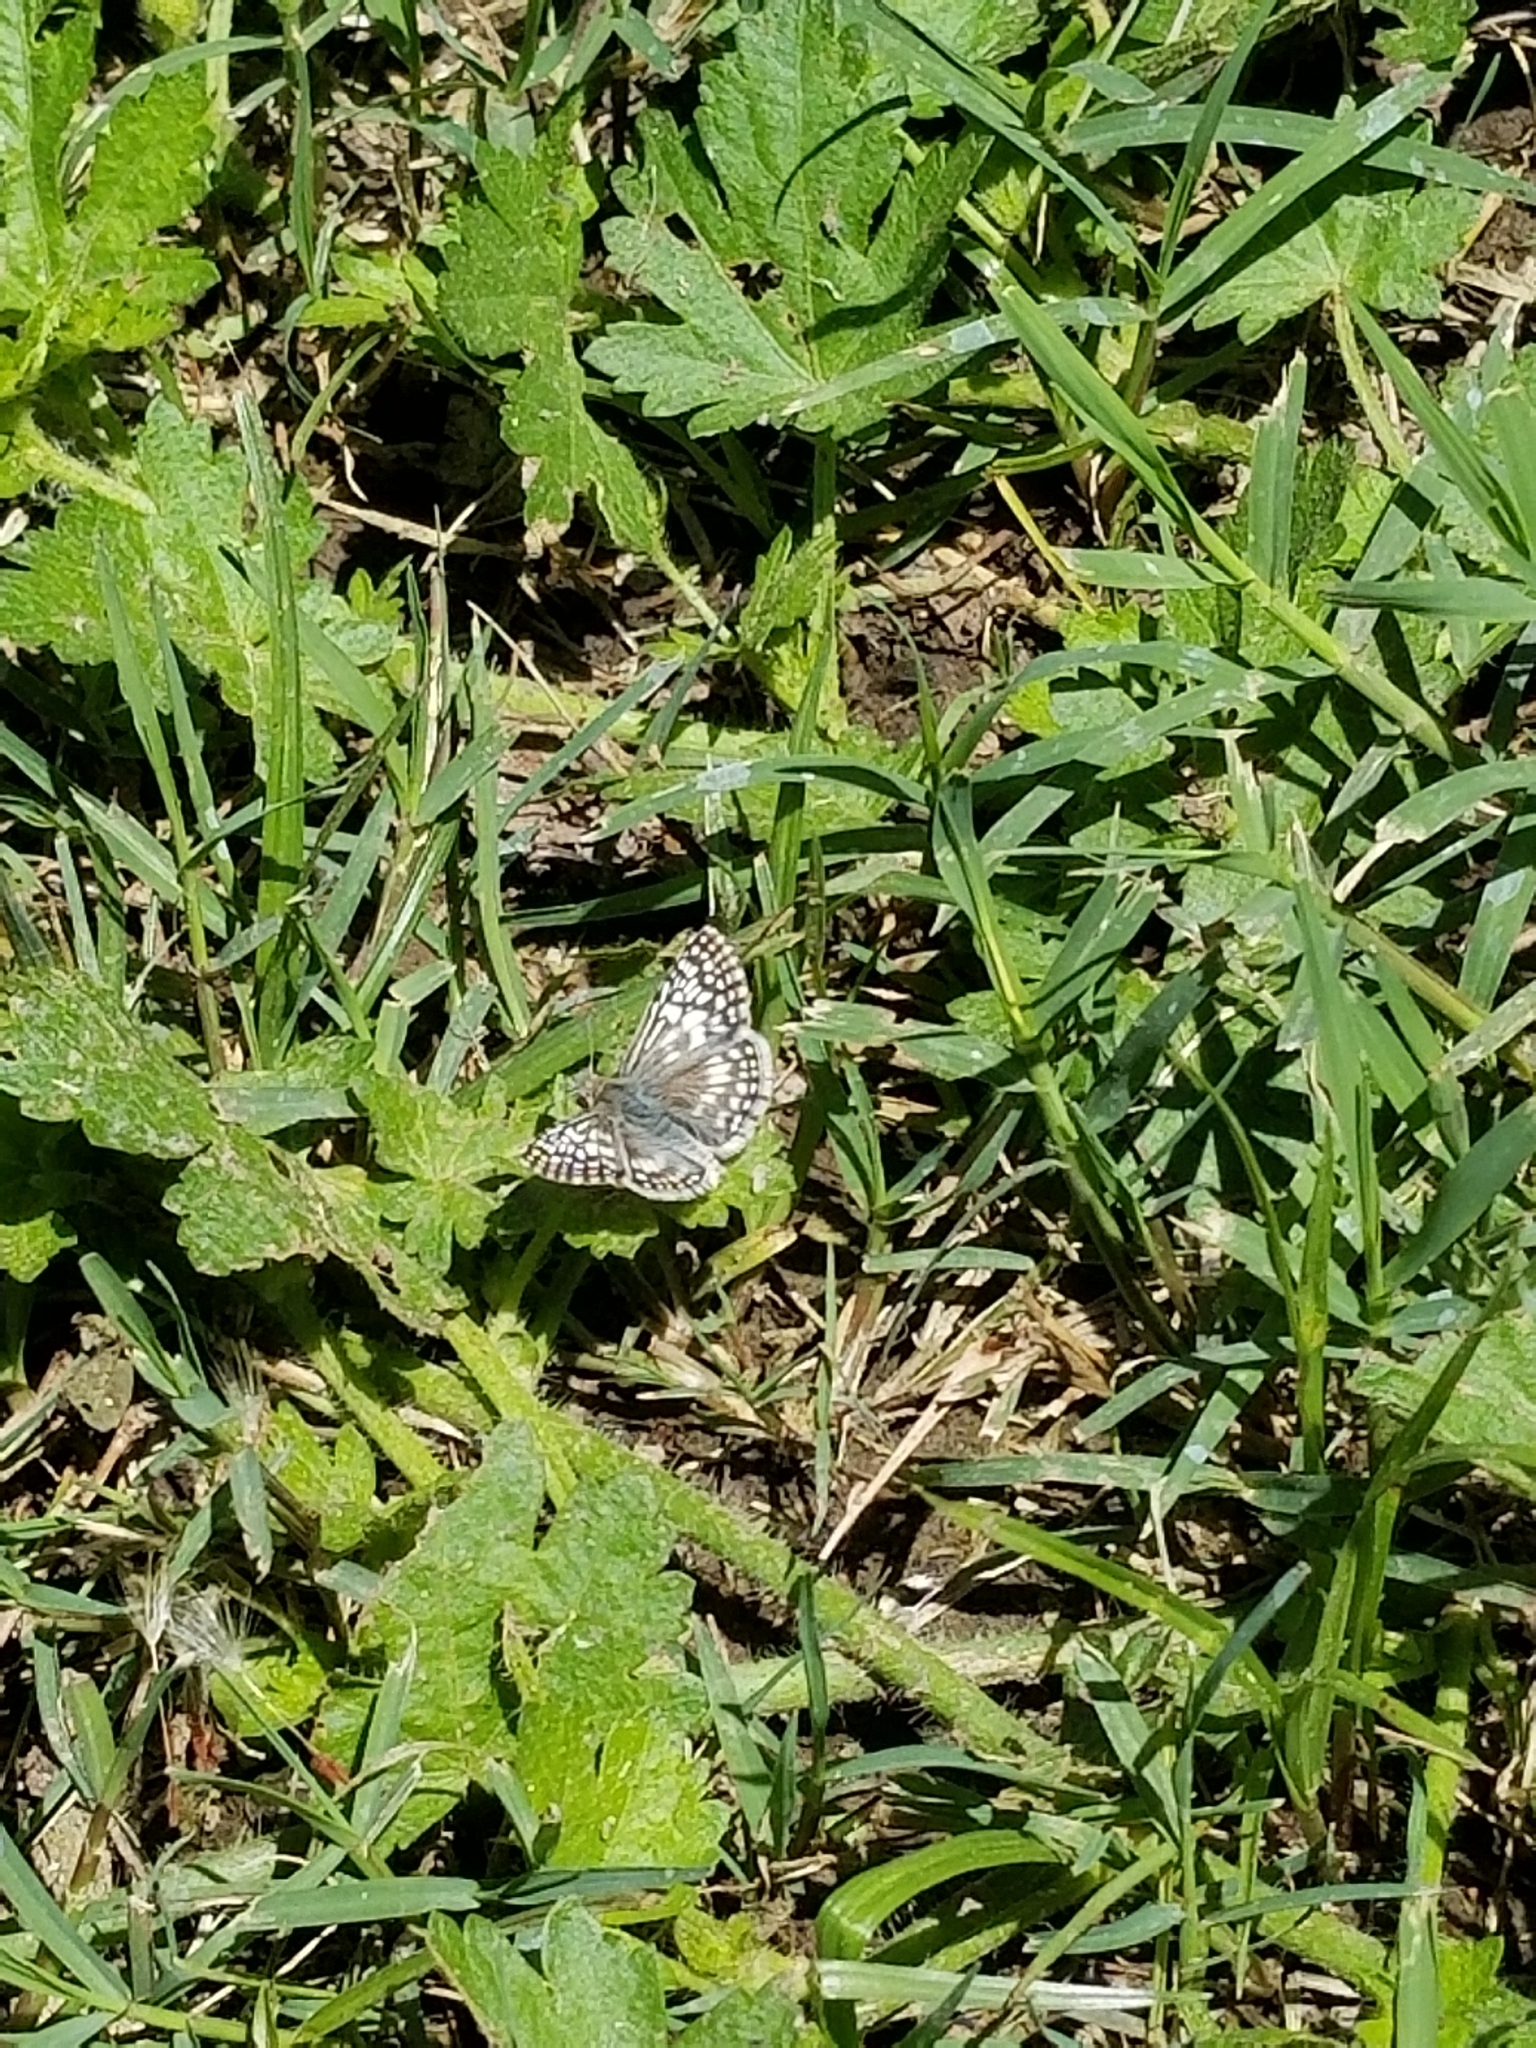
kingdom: Animalia
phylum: Arthropoda
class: Insecta
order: Lepidoptera
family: Hesperiidae
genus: Burnsius
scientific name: Burnsius philetas
